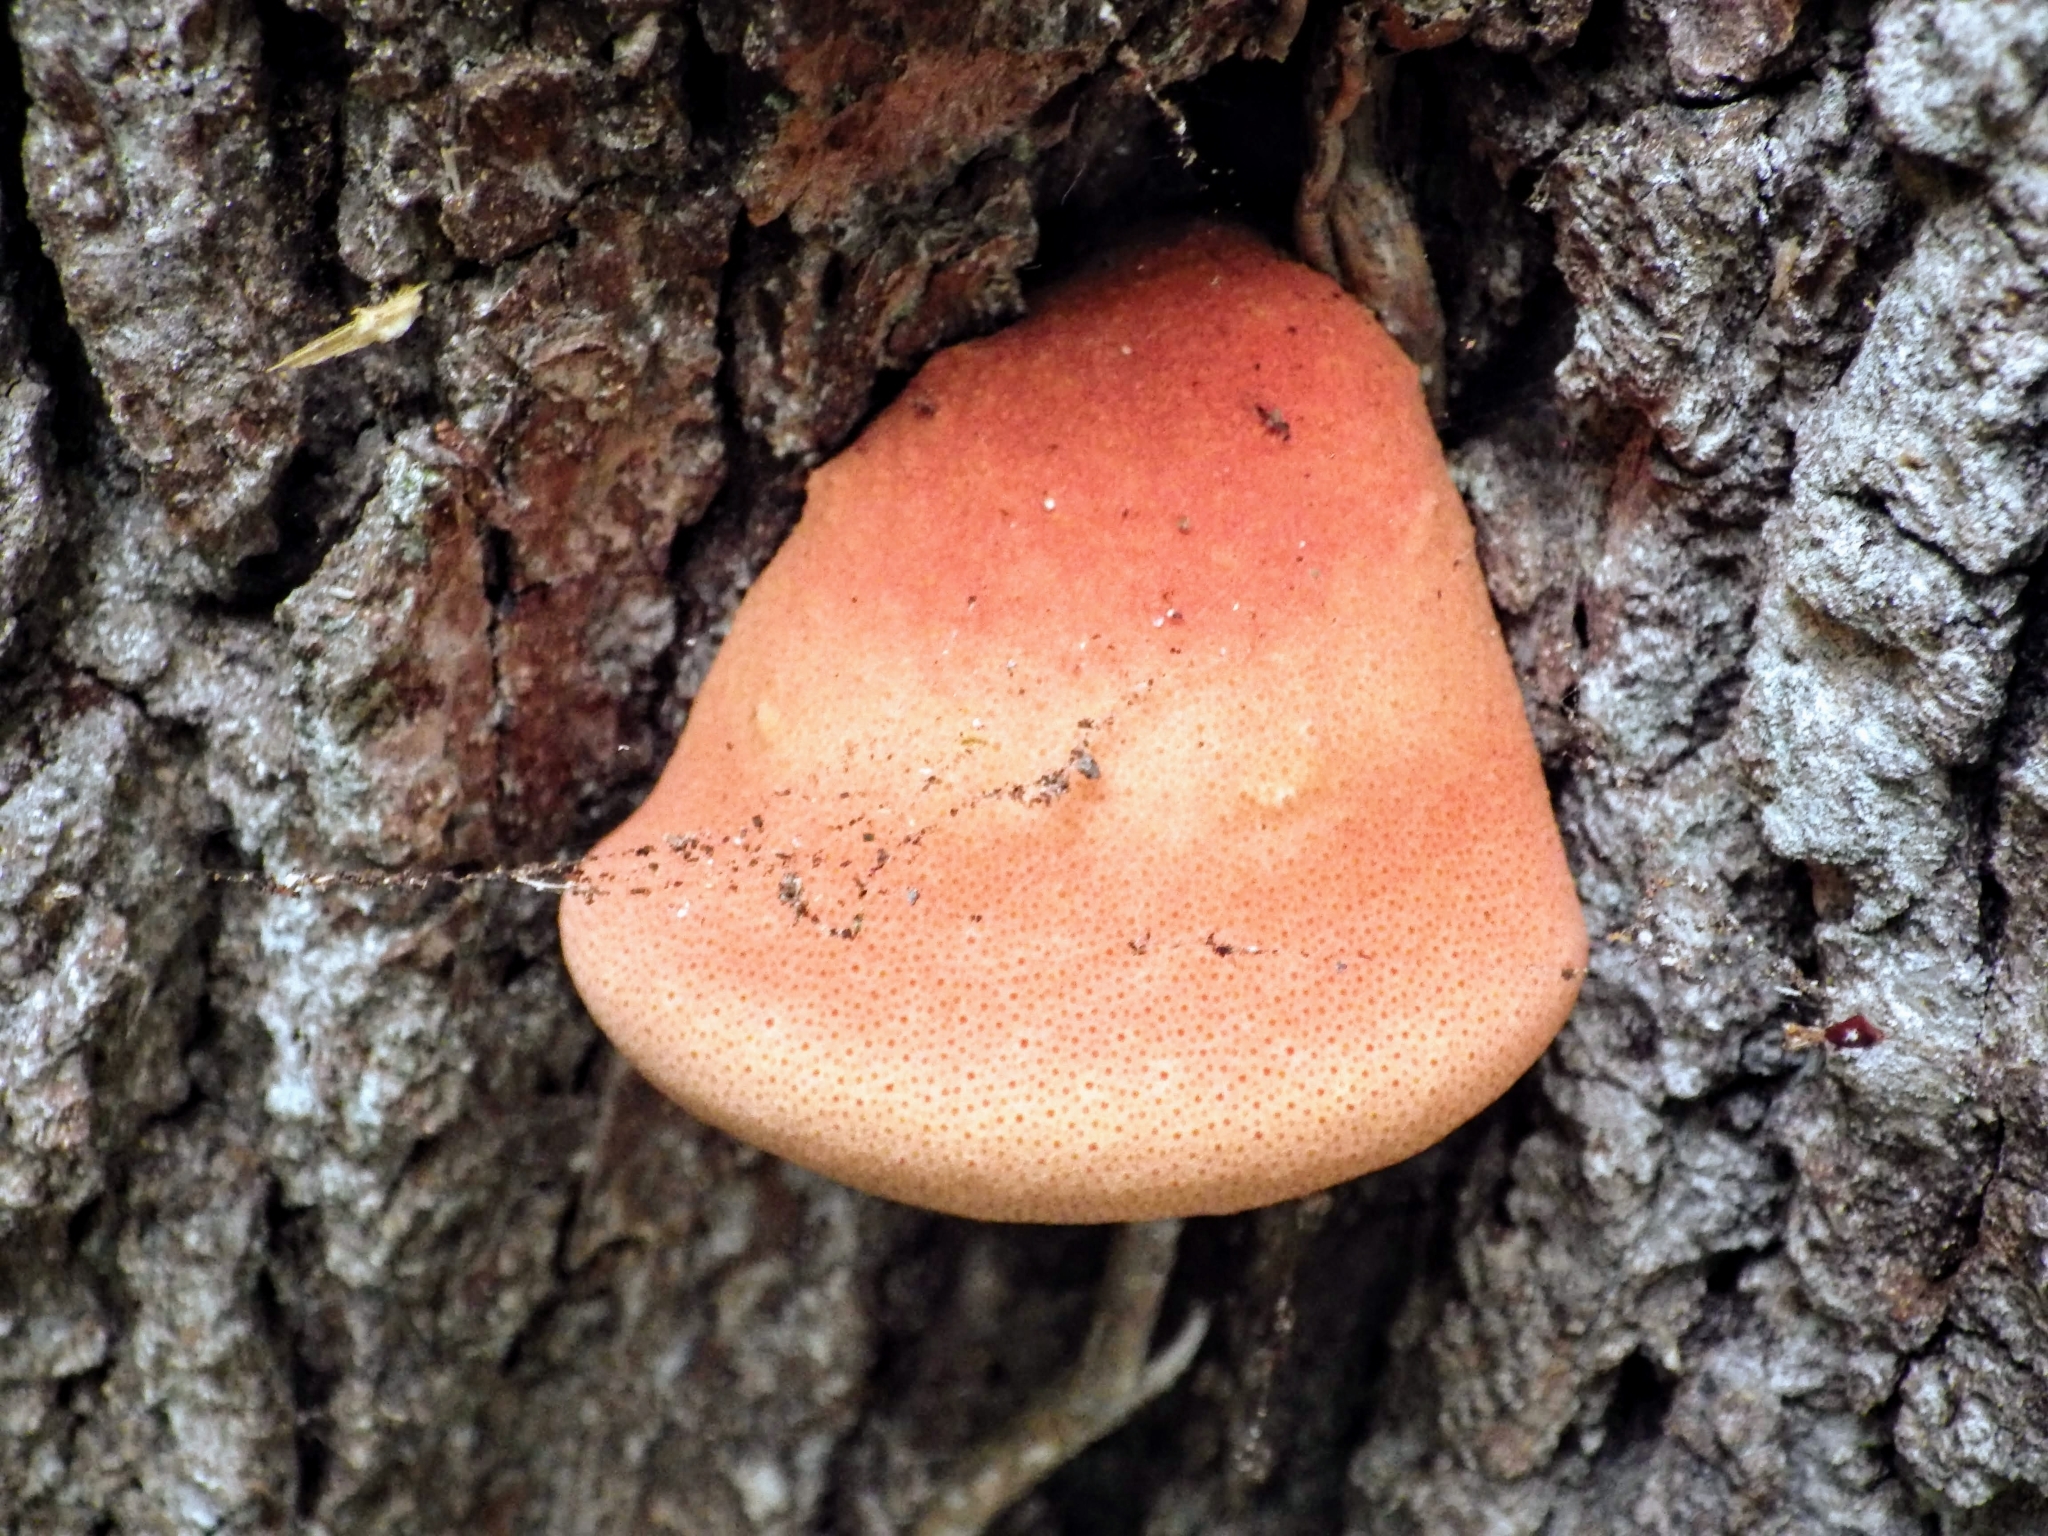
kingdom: Fungi
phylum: Basidiomycota
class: Agaricomycetes
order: Agaricales
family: Fistulinaceae
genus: Fistulina
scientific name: Fistulina hepatica
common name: Beef-steak fungus
